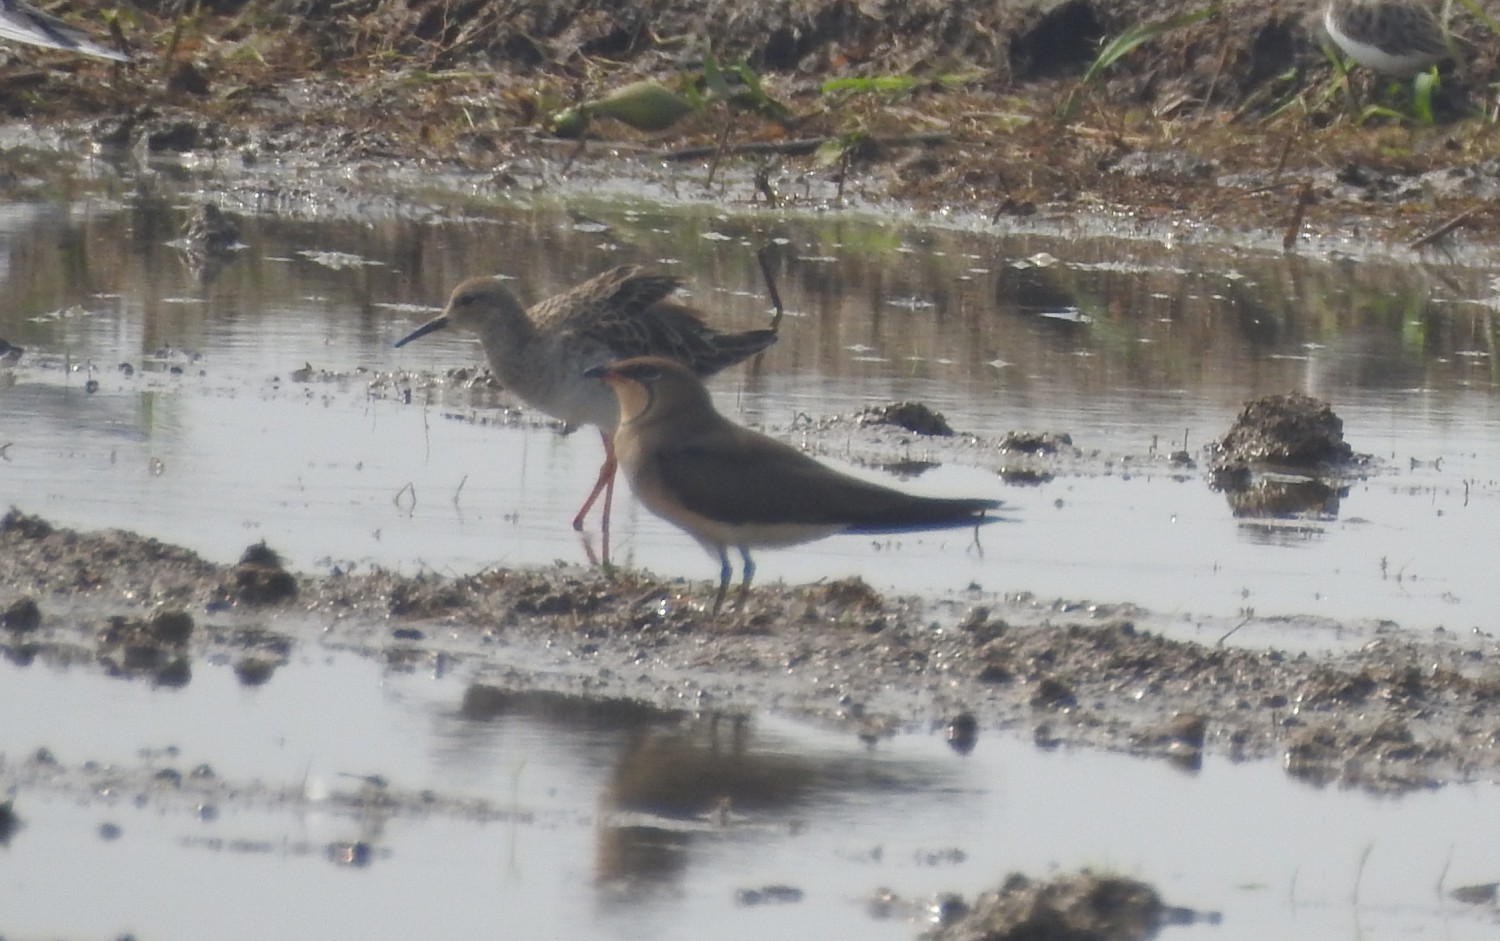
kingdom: Animalia
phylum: Chordata
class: Aves
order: Charadriiformes
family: Glareolidae
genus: Glareola
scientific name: Glareola maldivarum
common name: Oriental pratincole
